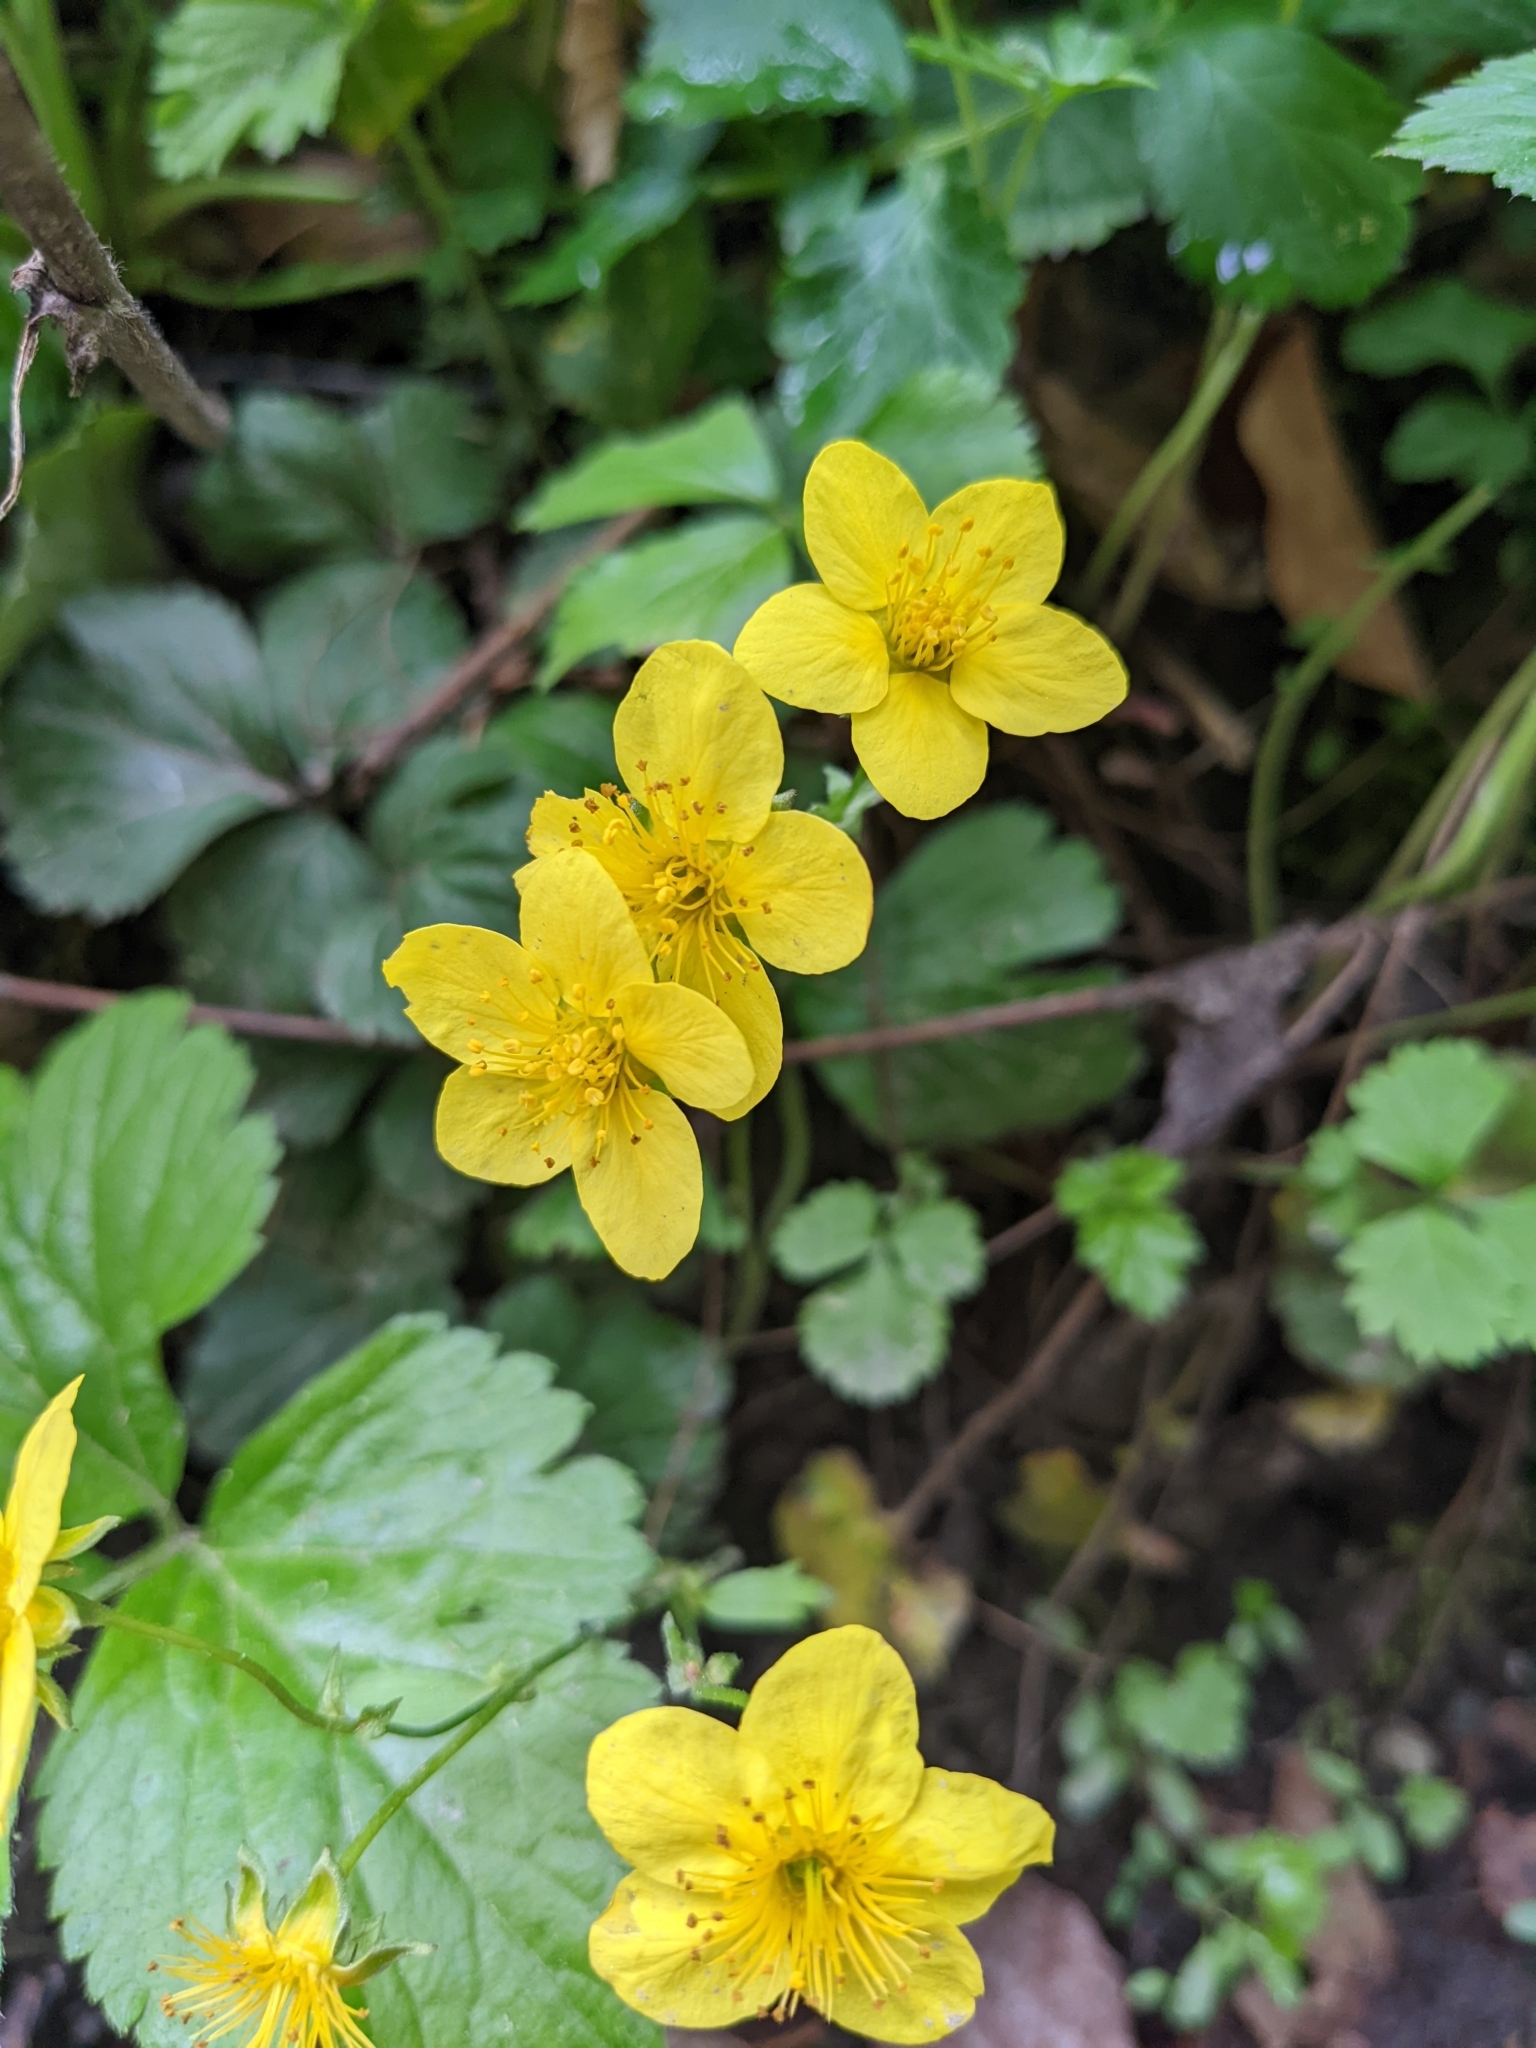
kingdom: Plantae
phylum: Tracheophyta
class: Magnoliopsida
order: Rosales
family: Rosaceae
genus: Geum
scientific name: Geum ternatum
